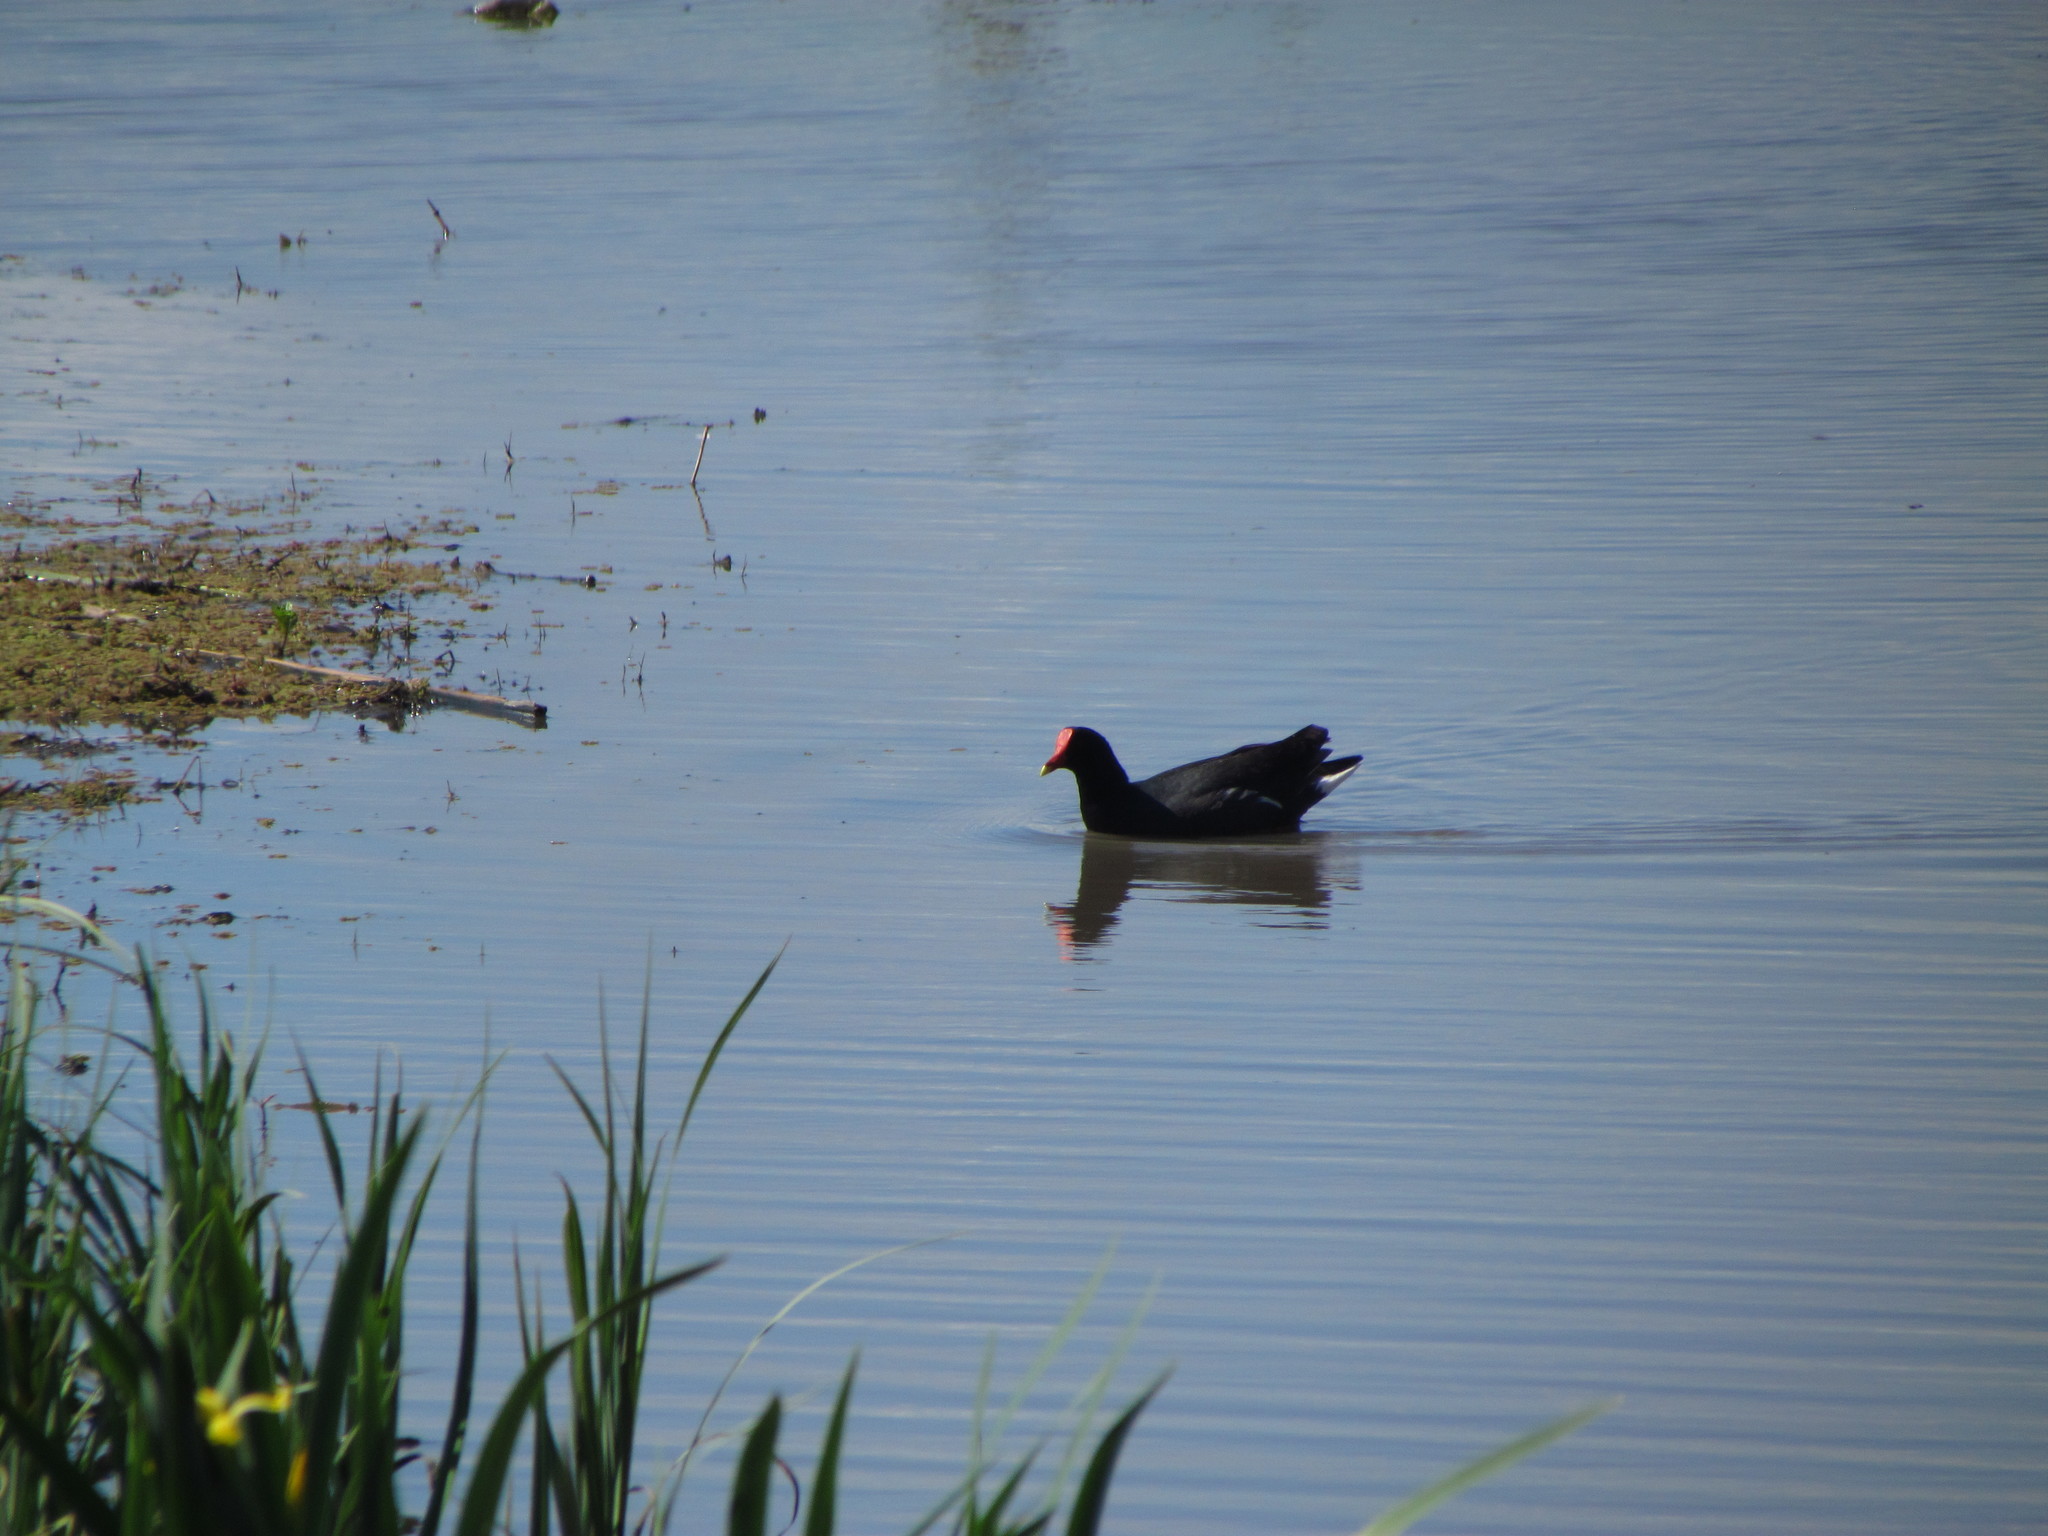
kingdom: Animalia
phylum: Chordata
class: Aves
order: Gruiformes
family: Rallidae
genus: Gallinula
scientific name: Gallinula chloropus
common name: Common moorhen
